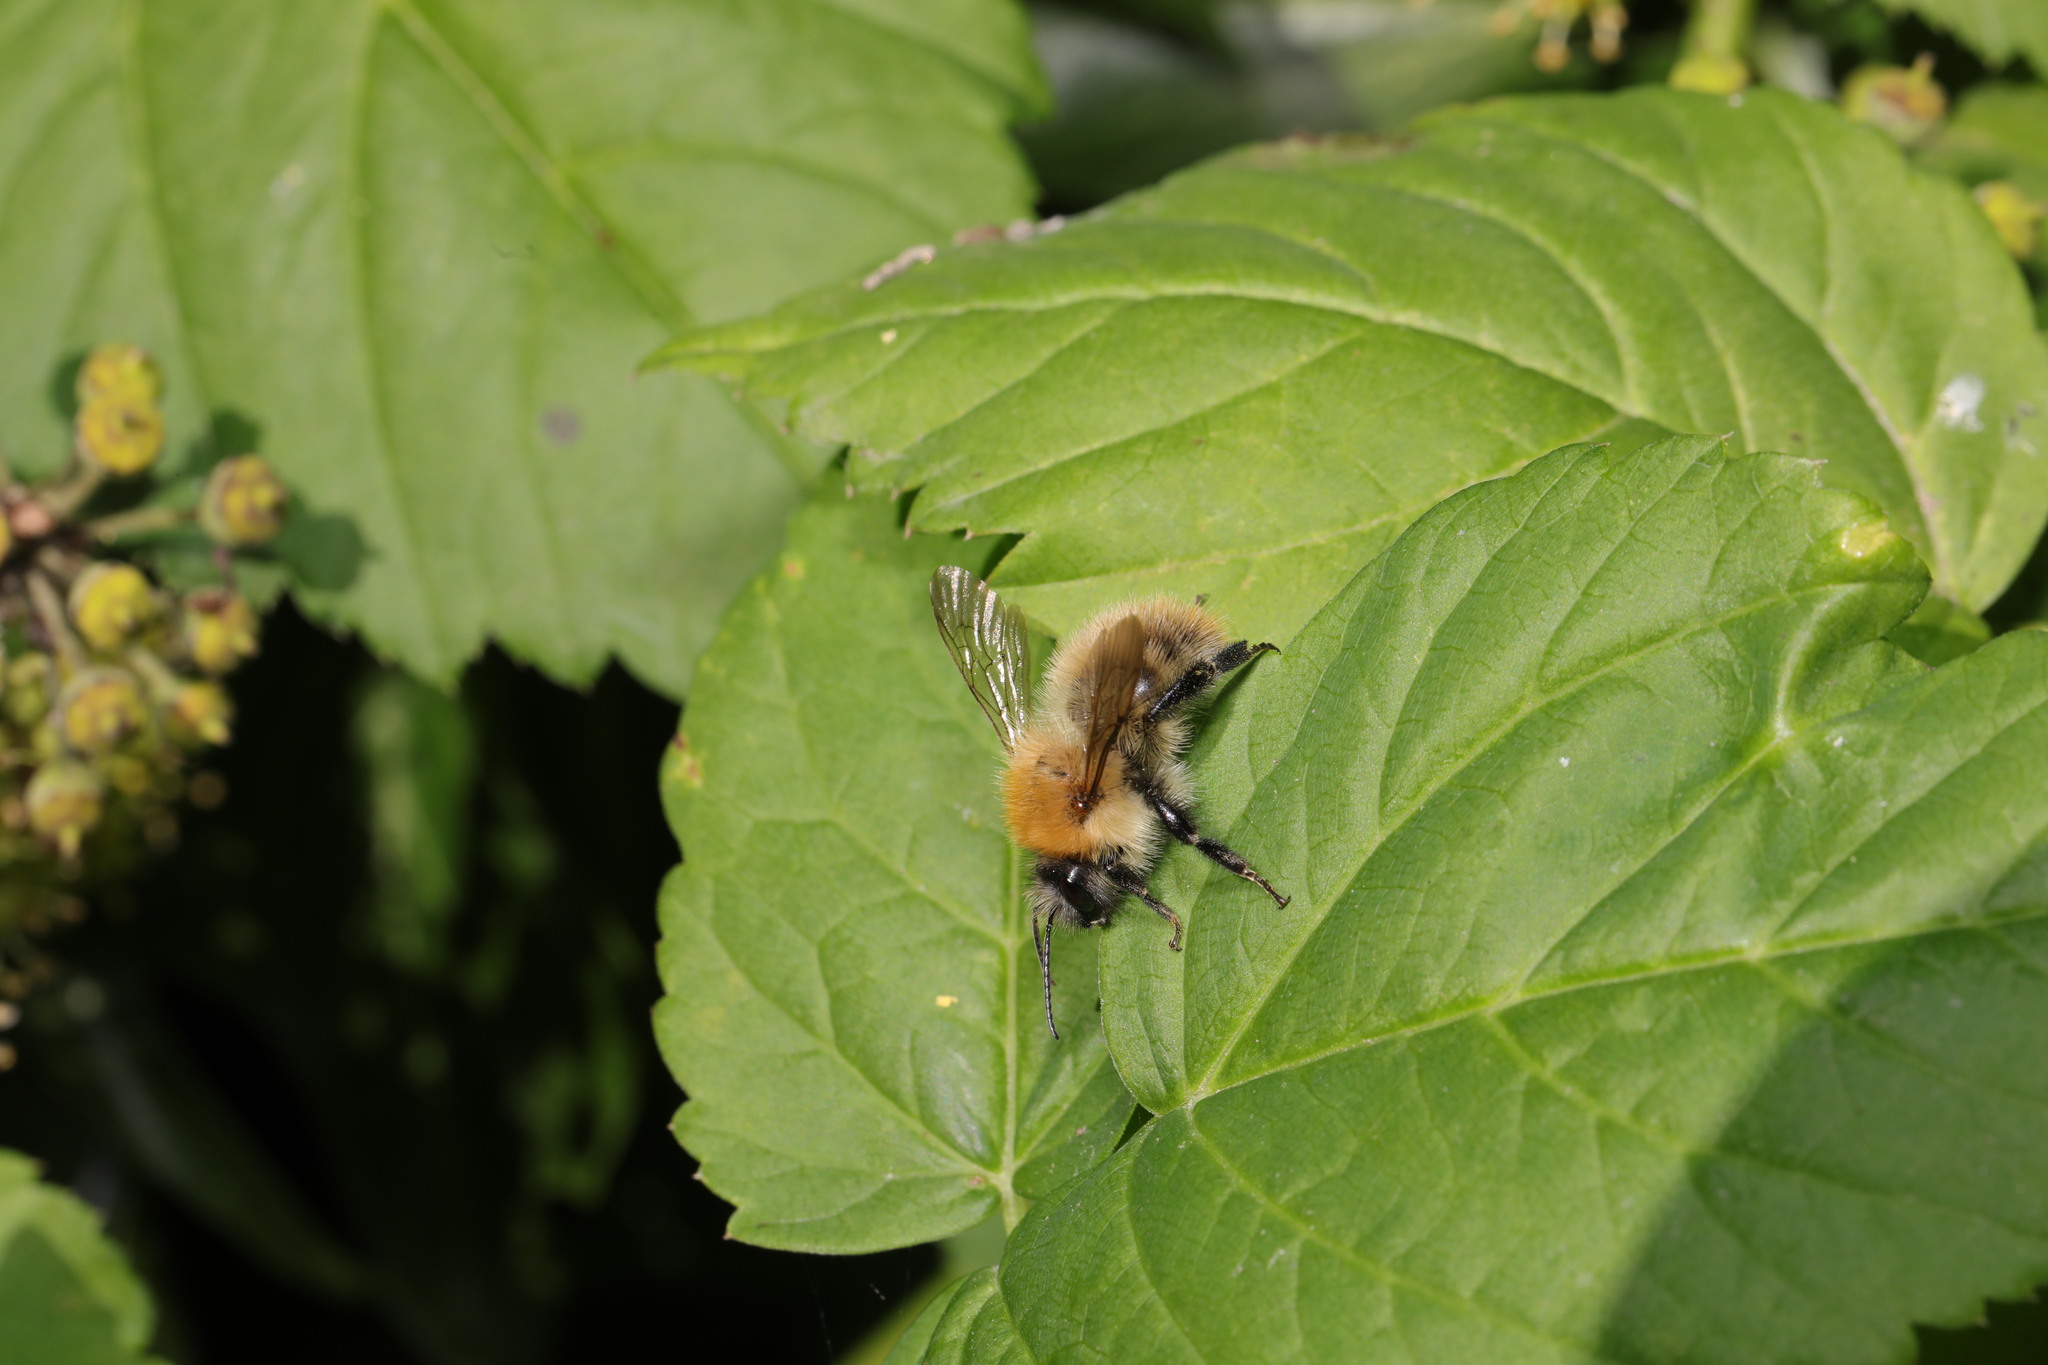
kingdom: Animalia
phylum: Arthropoda
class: Insecta
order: Hymenoptera
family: Apidae
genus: Bombus
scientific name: Bombus pascuorum
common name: Common carder bee
